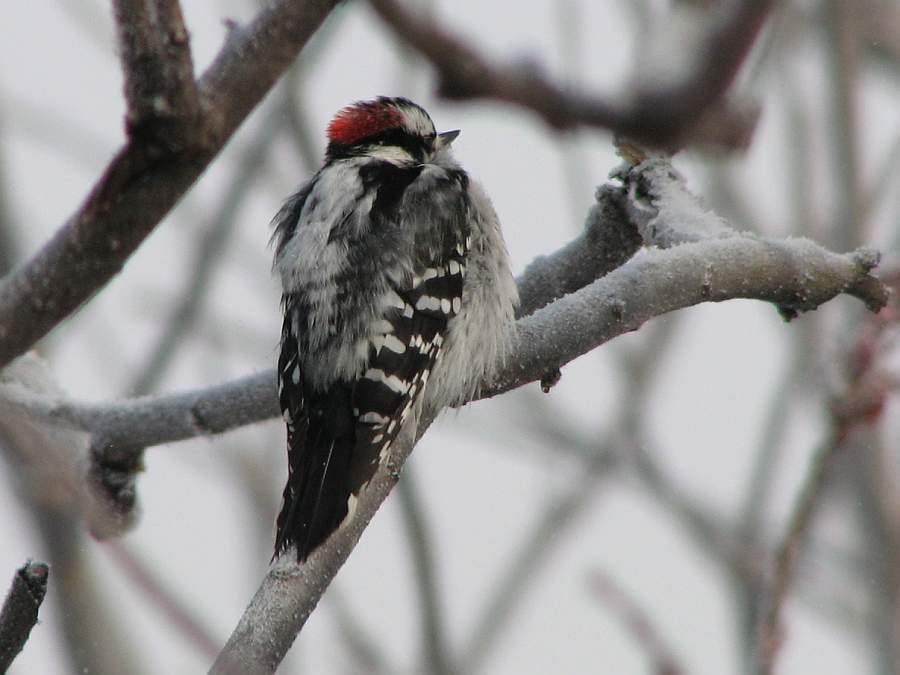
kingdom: Animalia
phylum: Chordata
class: Aves
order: Piciformes
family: Picidae
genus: Dryobates
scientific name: Dryobates pubescens
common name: Downy woodpecker
